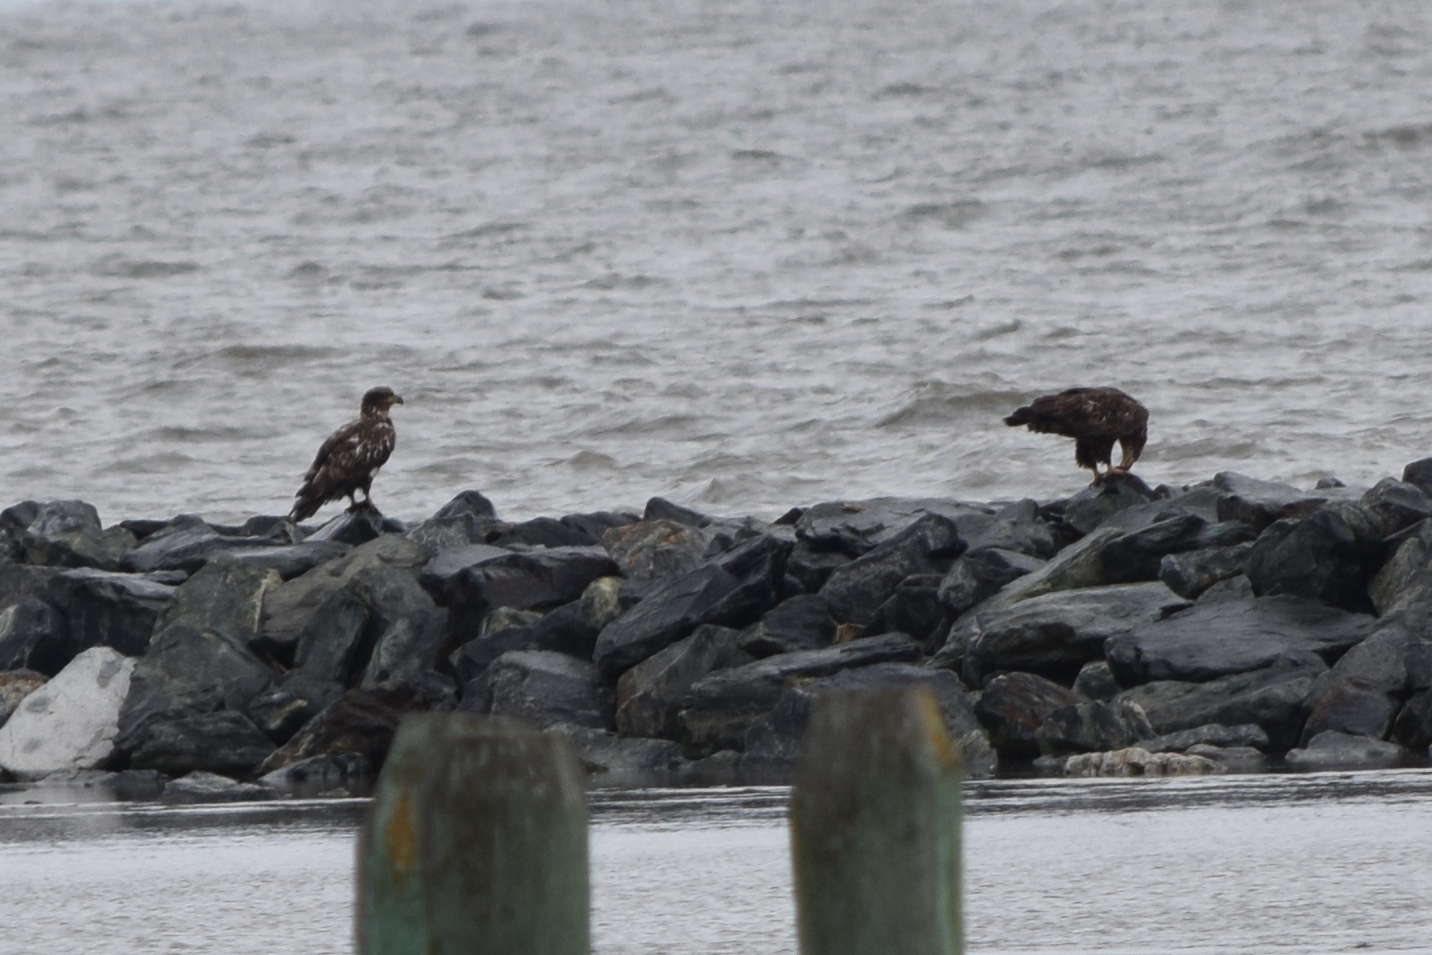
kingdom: Animalia
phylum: Chordata
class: Aves
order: Accipitriformes
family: Accipitridae
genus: Haliaeetus
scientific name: Haliaeetus leucocephalus
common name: Bald eagle
